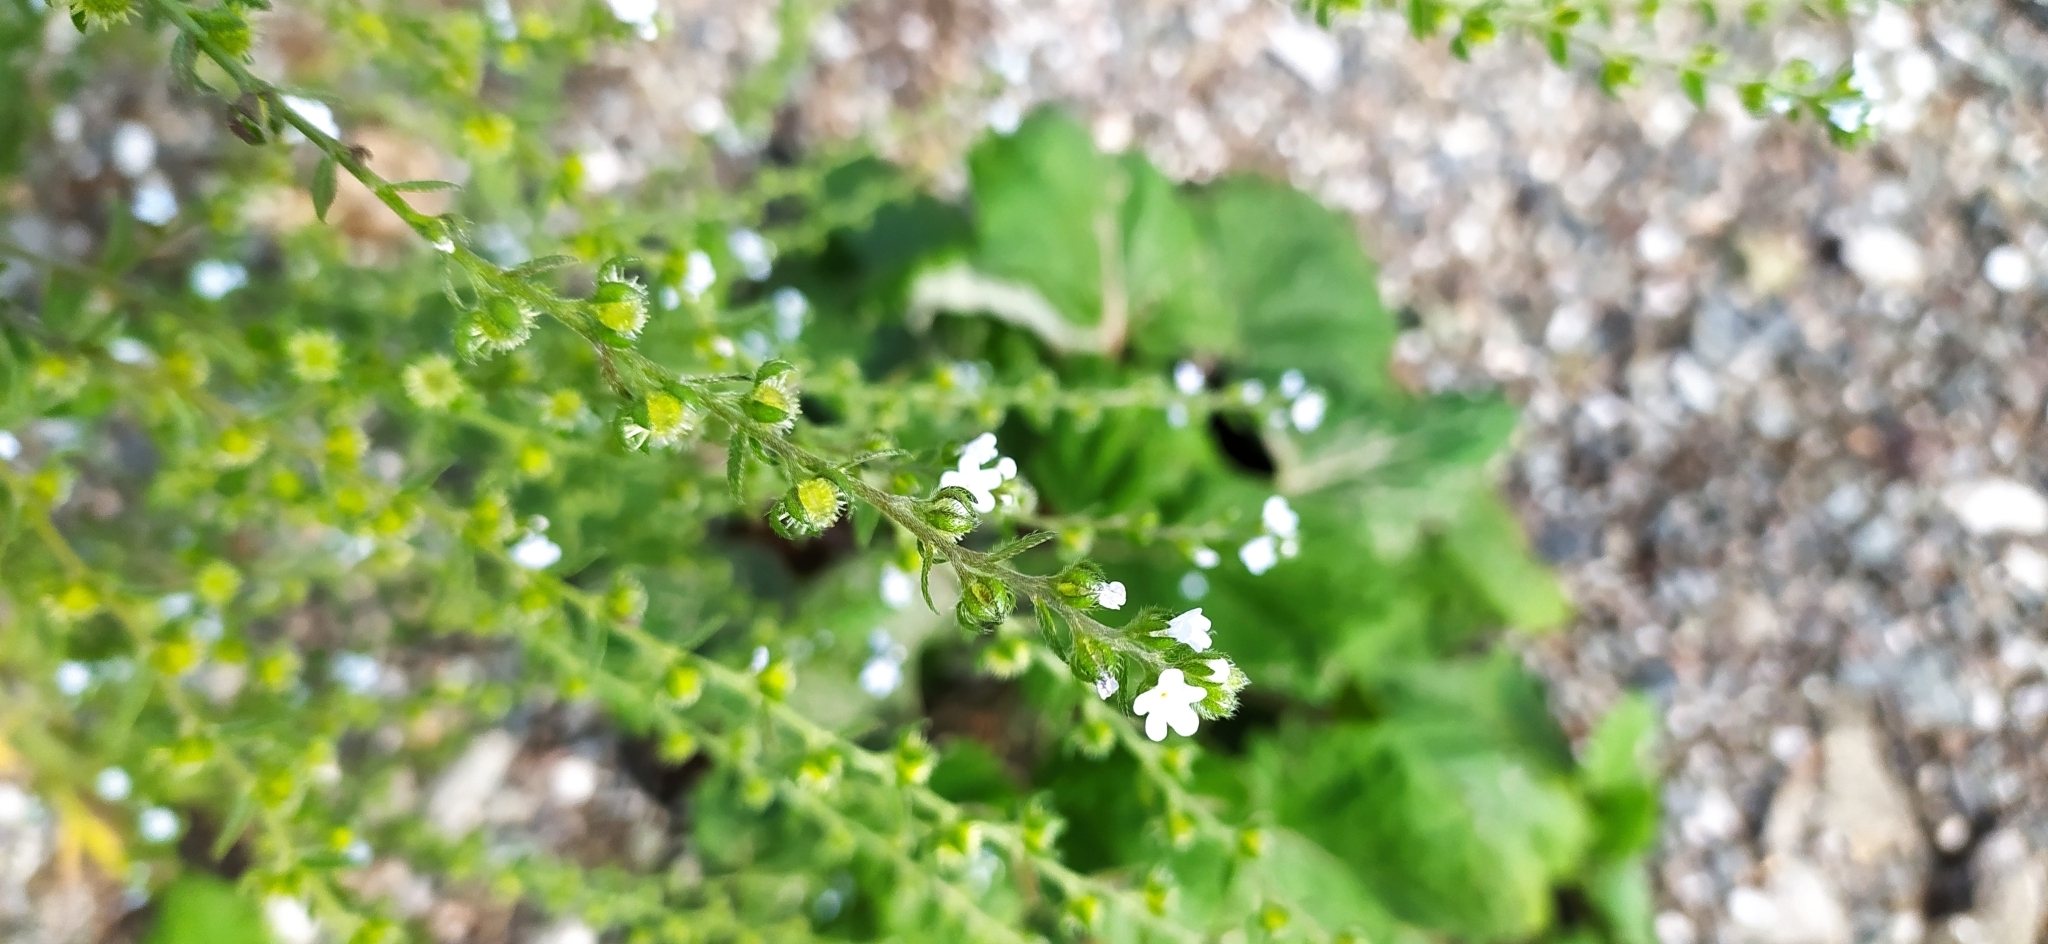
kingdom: Plantae
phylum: Tracheophyta
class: Magnoliopsida
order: Boraginales
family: Boraginaceae
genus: Lappula
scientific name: Lappula squarrosa
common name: European stickseed
